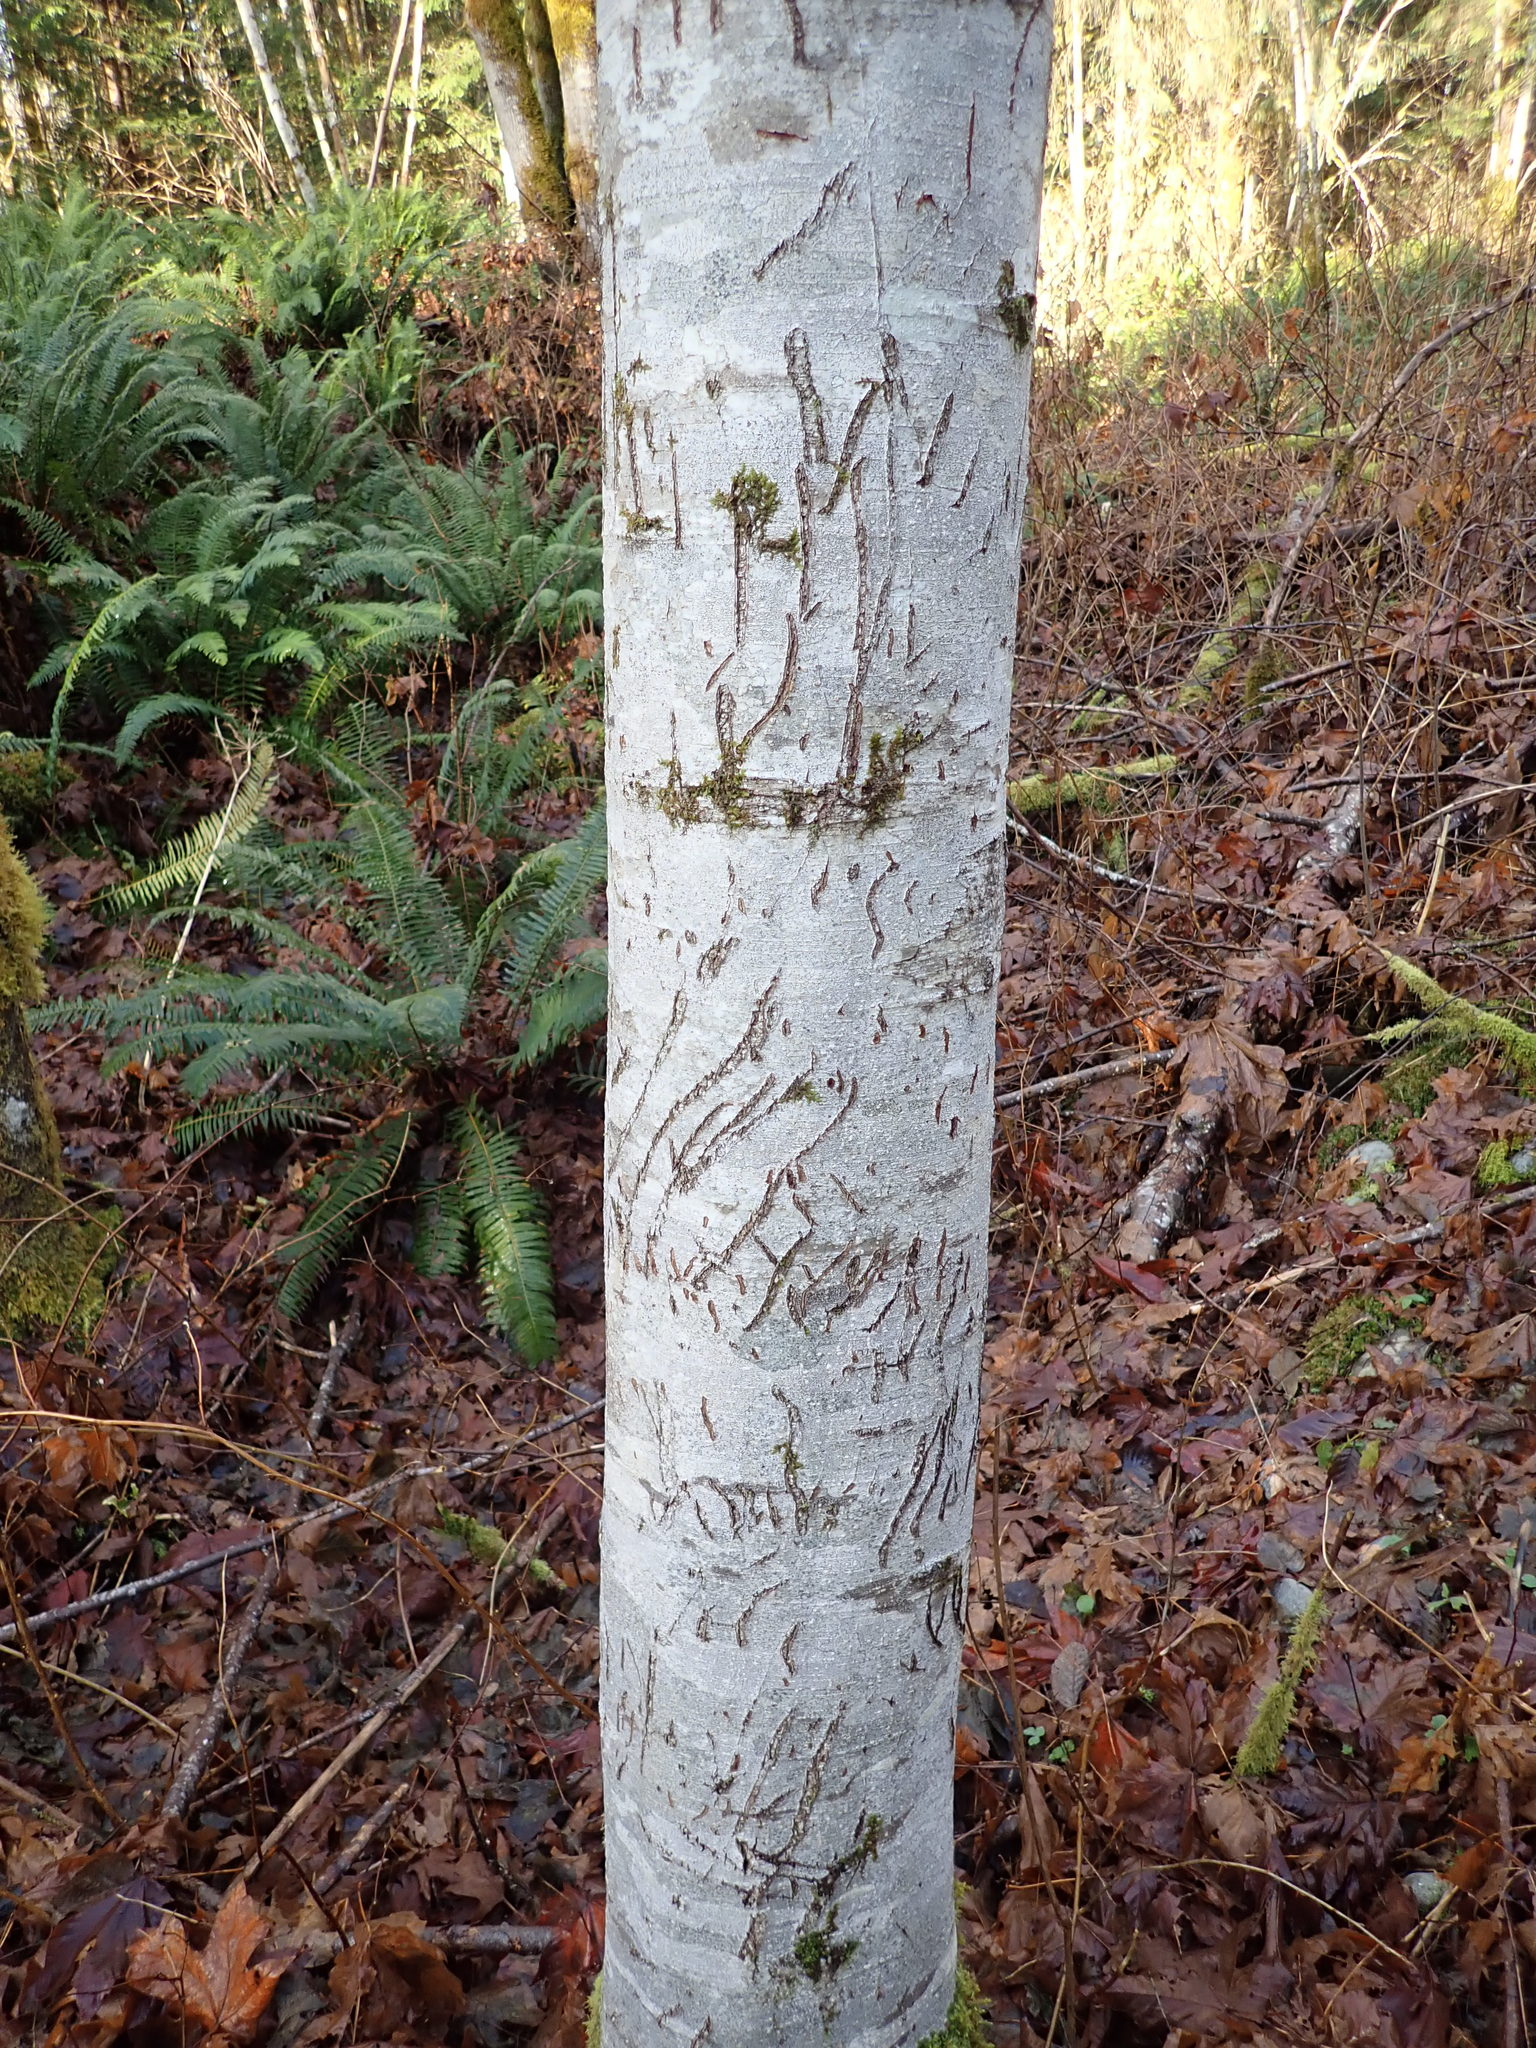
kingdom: Animalia
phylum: Chordata
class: Mammalia
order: Carnivora
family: Ursidae
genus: Ursus
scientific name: Ursus americanus
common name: American black bear
